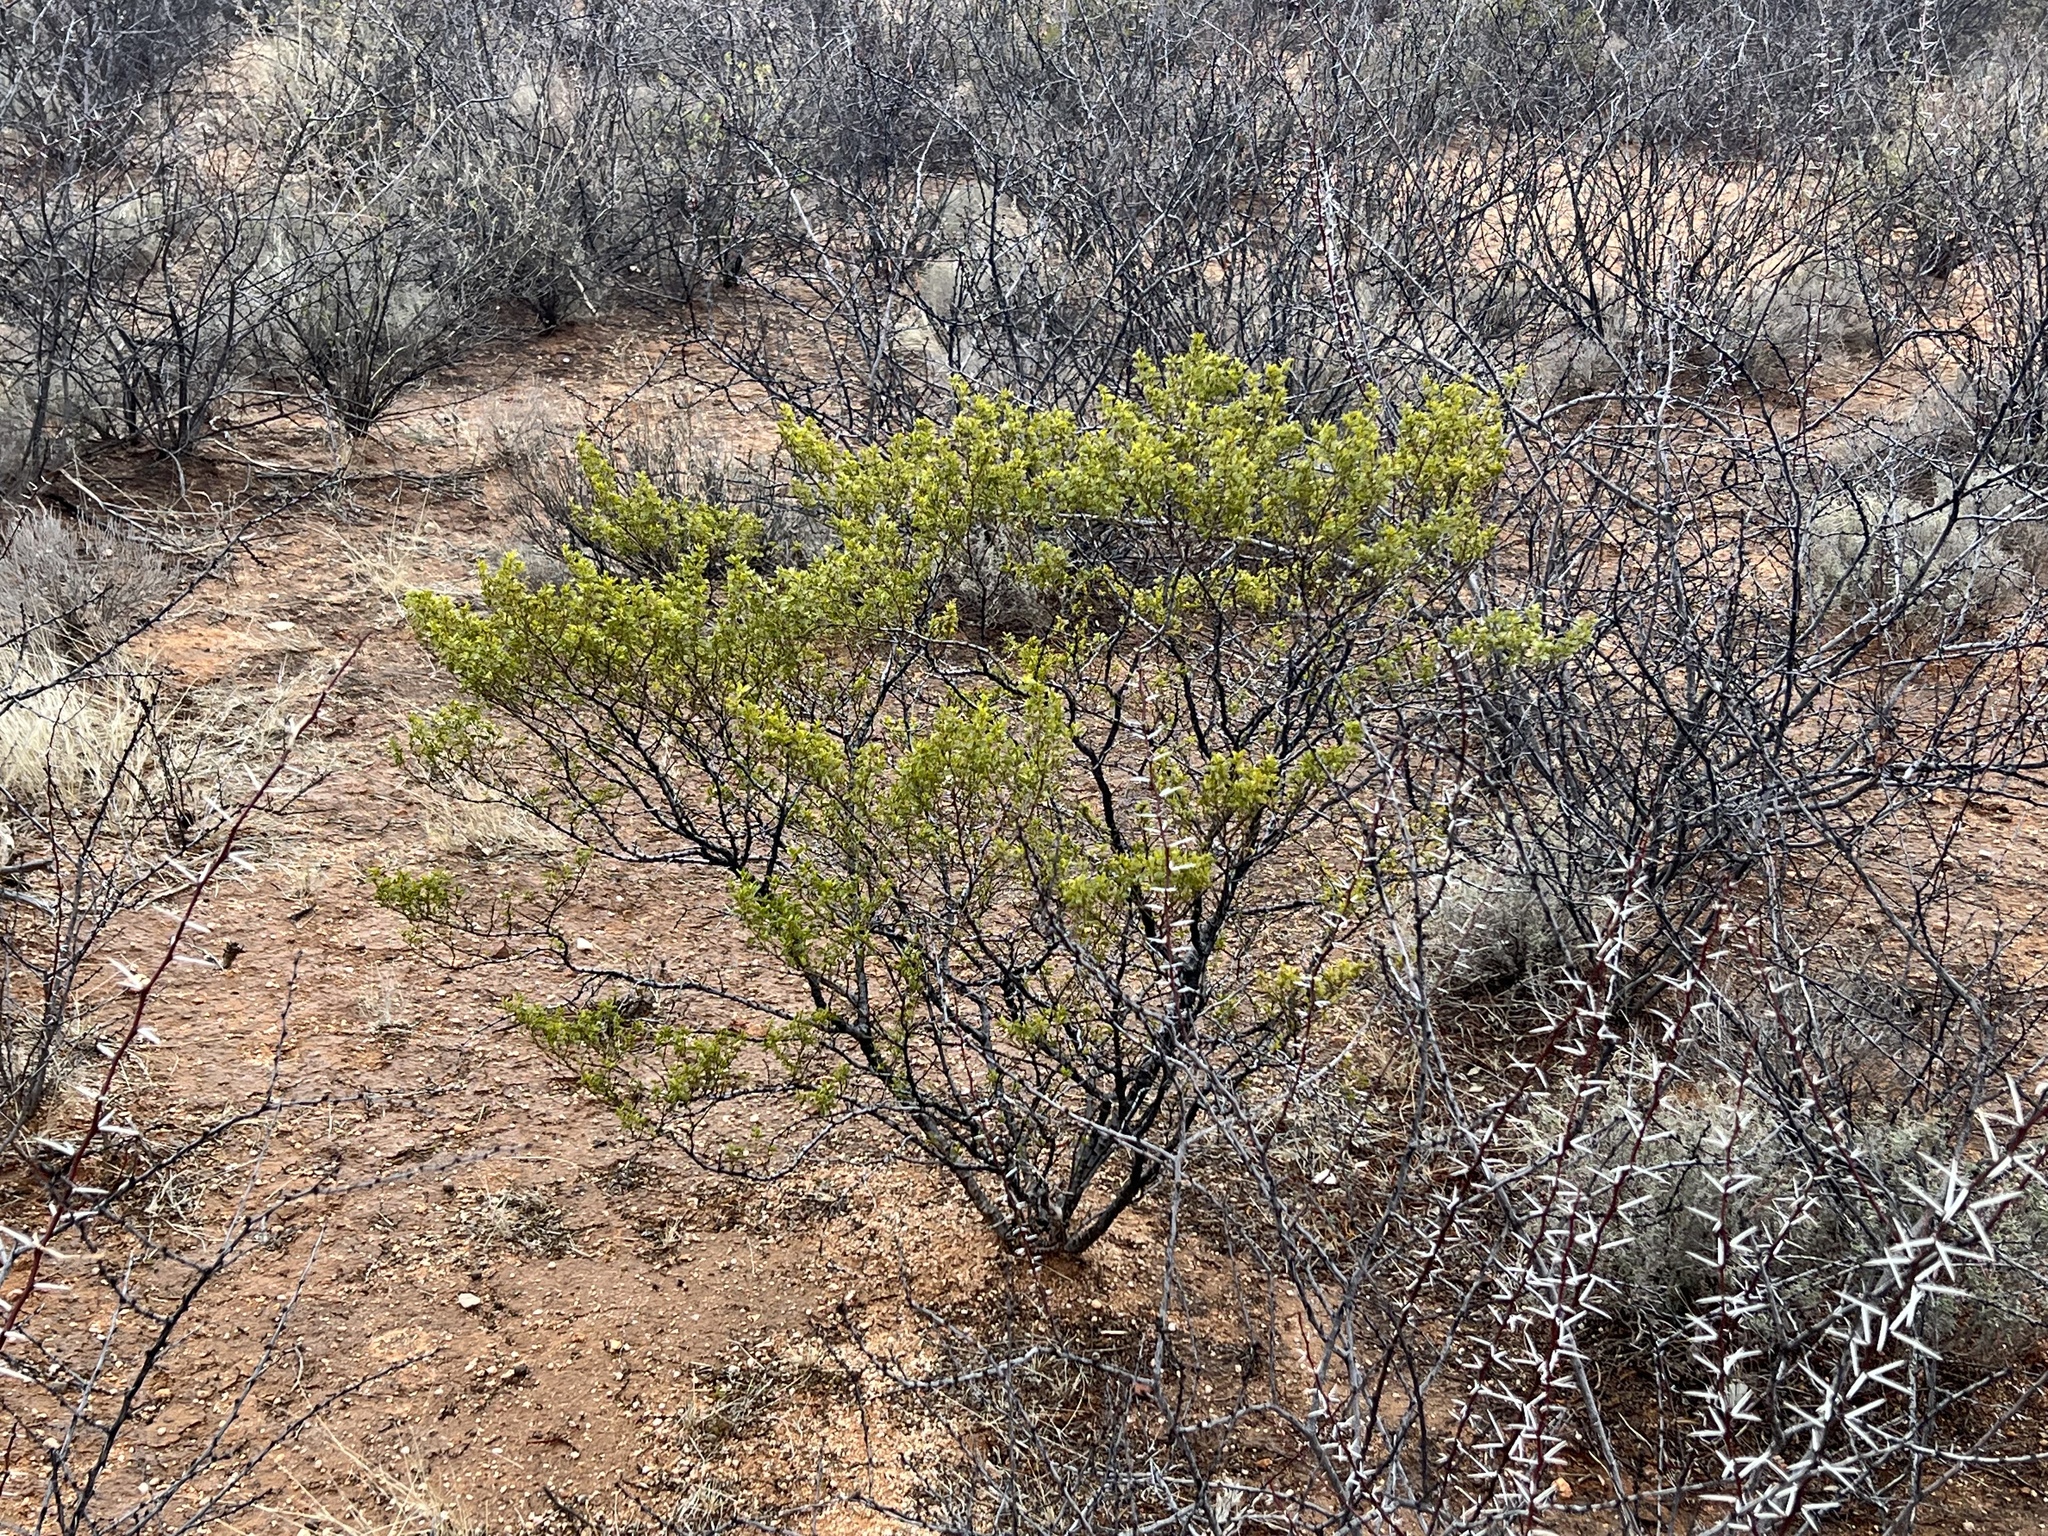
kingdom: Plantae
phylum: Tracheophyta
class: Magnoliopsida
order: Zygophyllales
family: Zygophyllaceae
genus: Larrea
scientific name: Larrea tridentata
